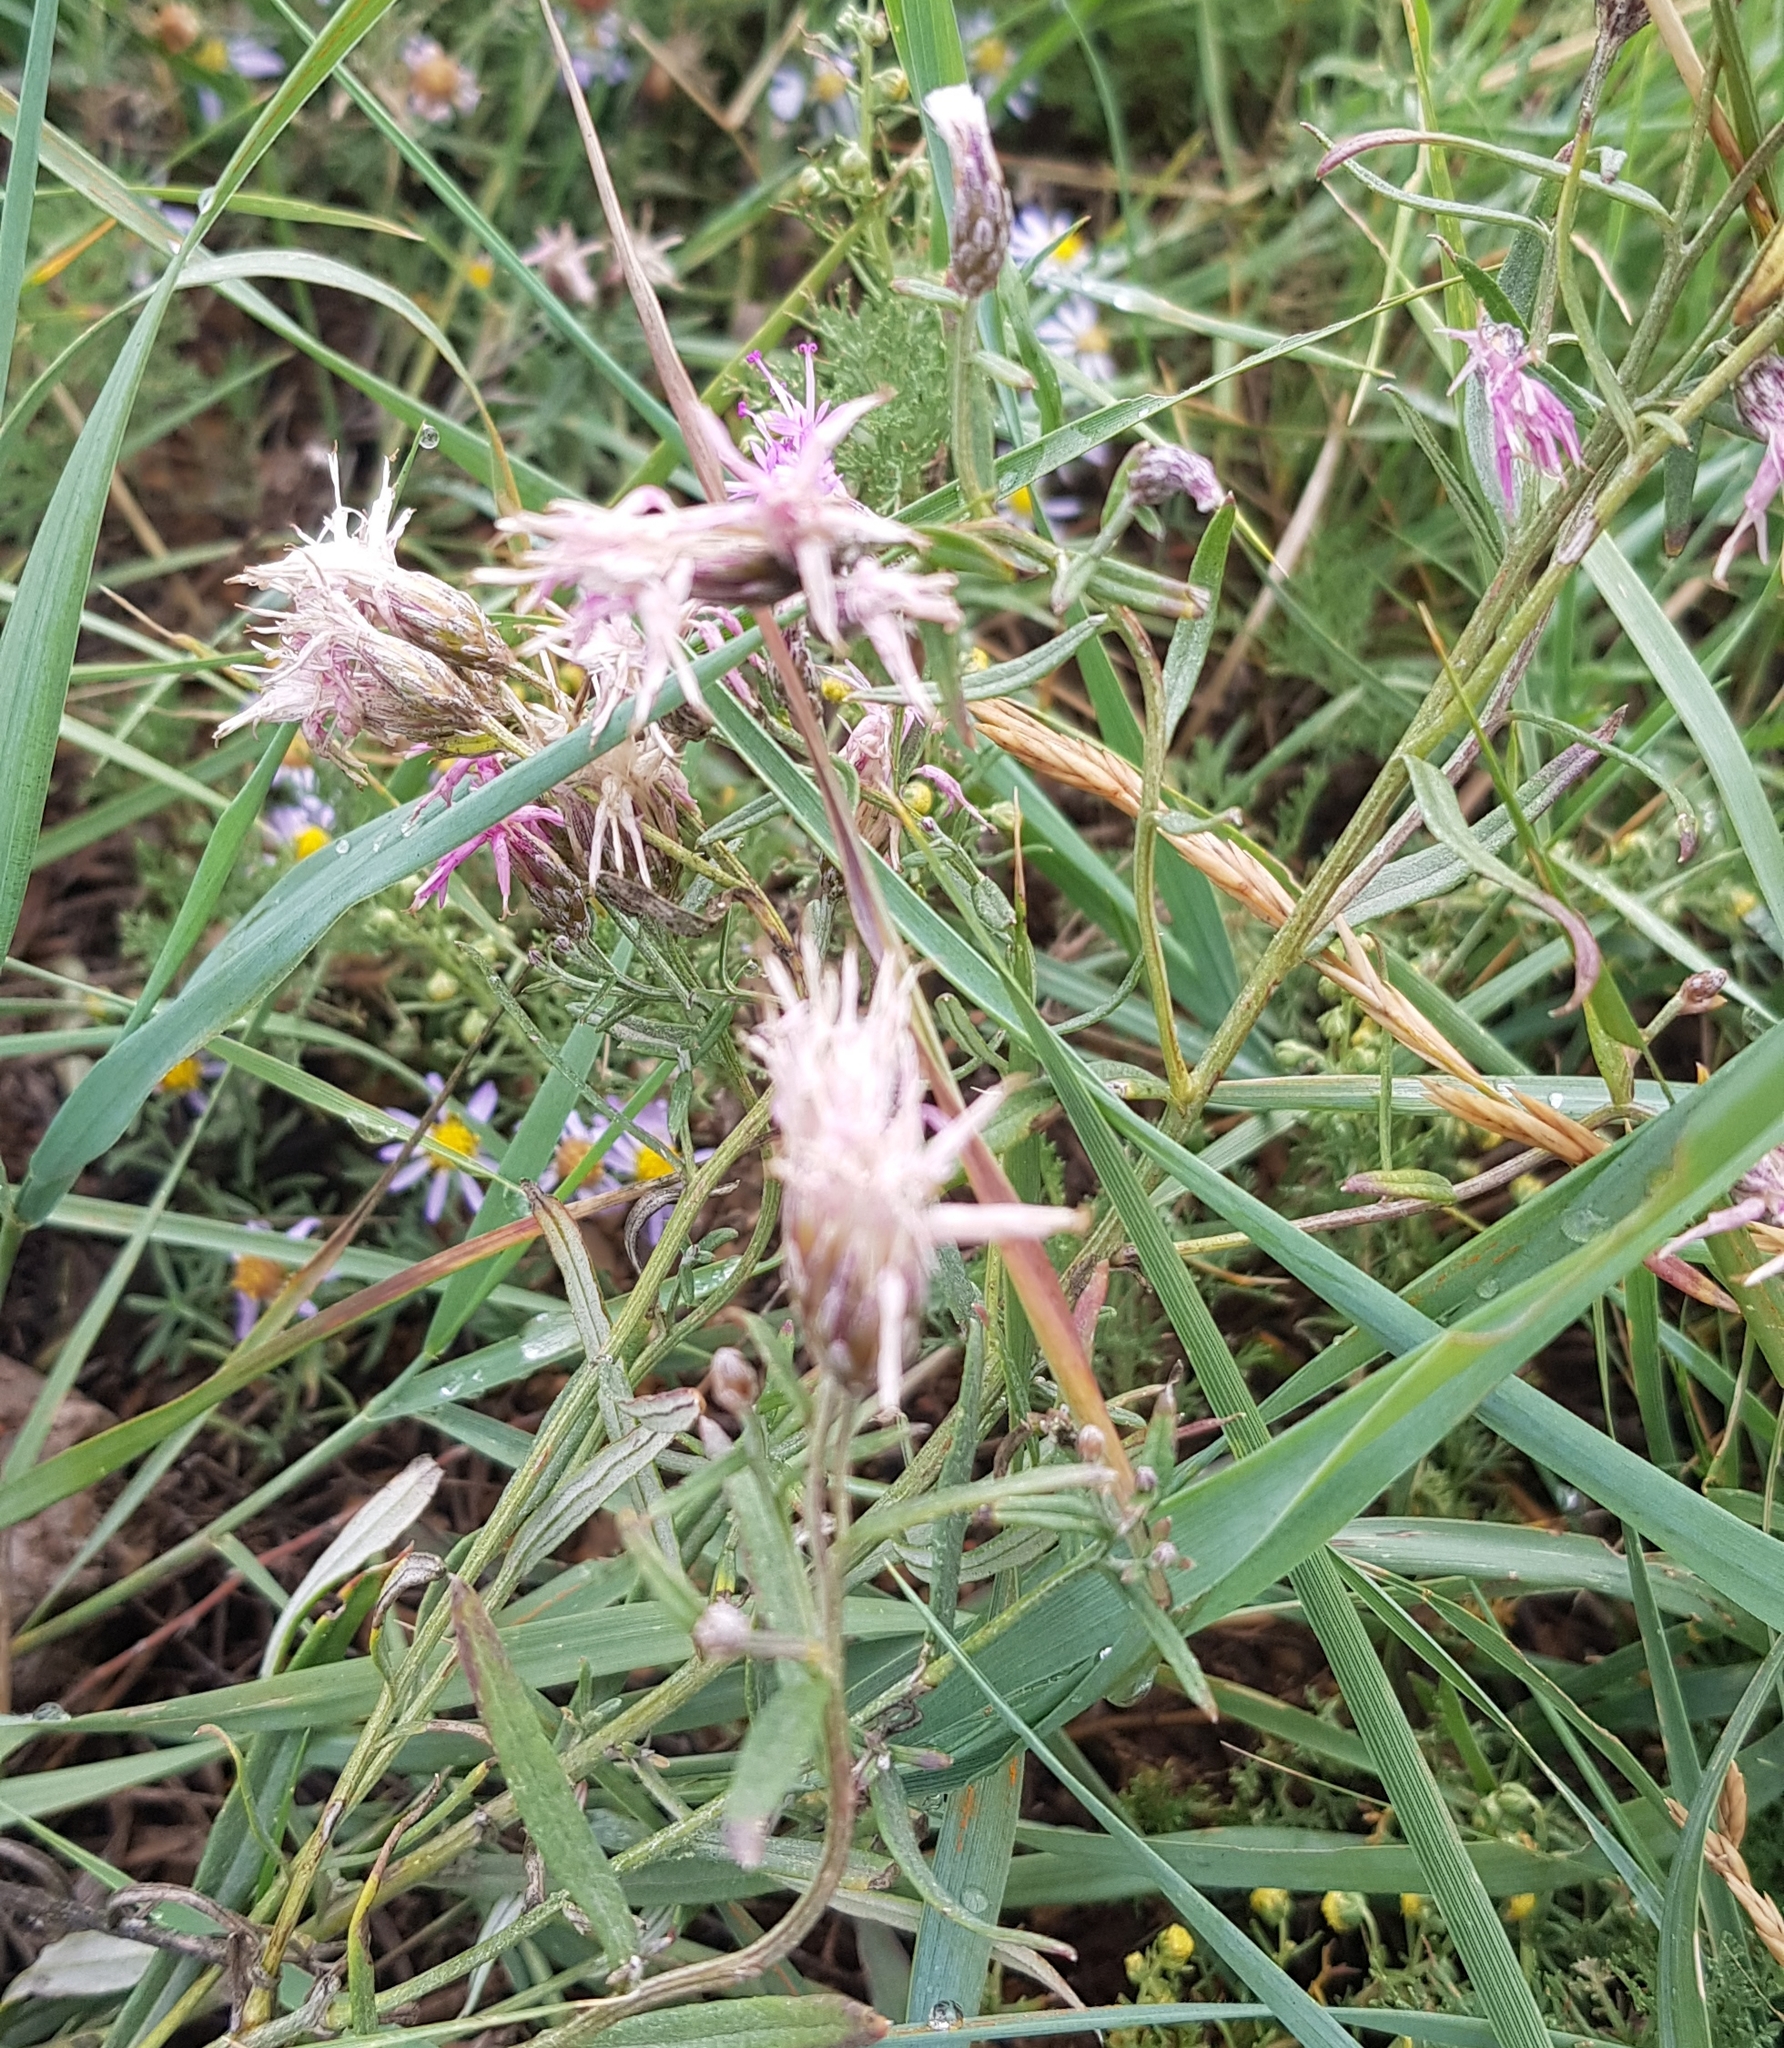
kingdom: Plantae
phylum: Tracheophyta
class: Magnoliopsida
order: Asterales
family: Asteraceae
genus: Saussurea
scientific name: Saussurea salicifolia
